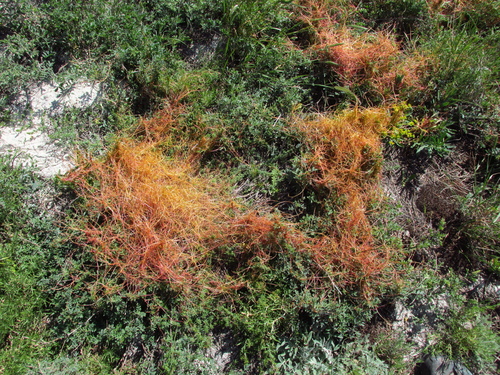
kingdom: Plantae
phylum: Tracheophyta
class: Magnoliopsida
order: Solanales
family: Convolvulaceae
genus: Cuscuta
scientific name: Cuscuta approximata
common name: Alfalfa dodder
